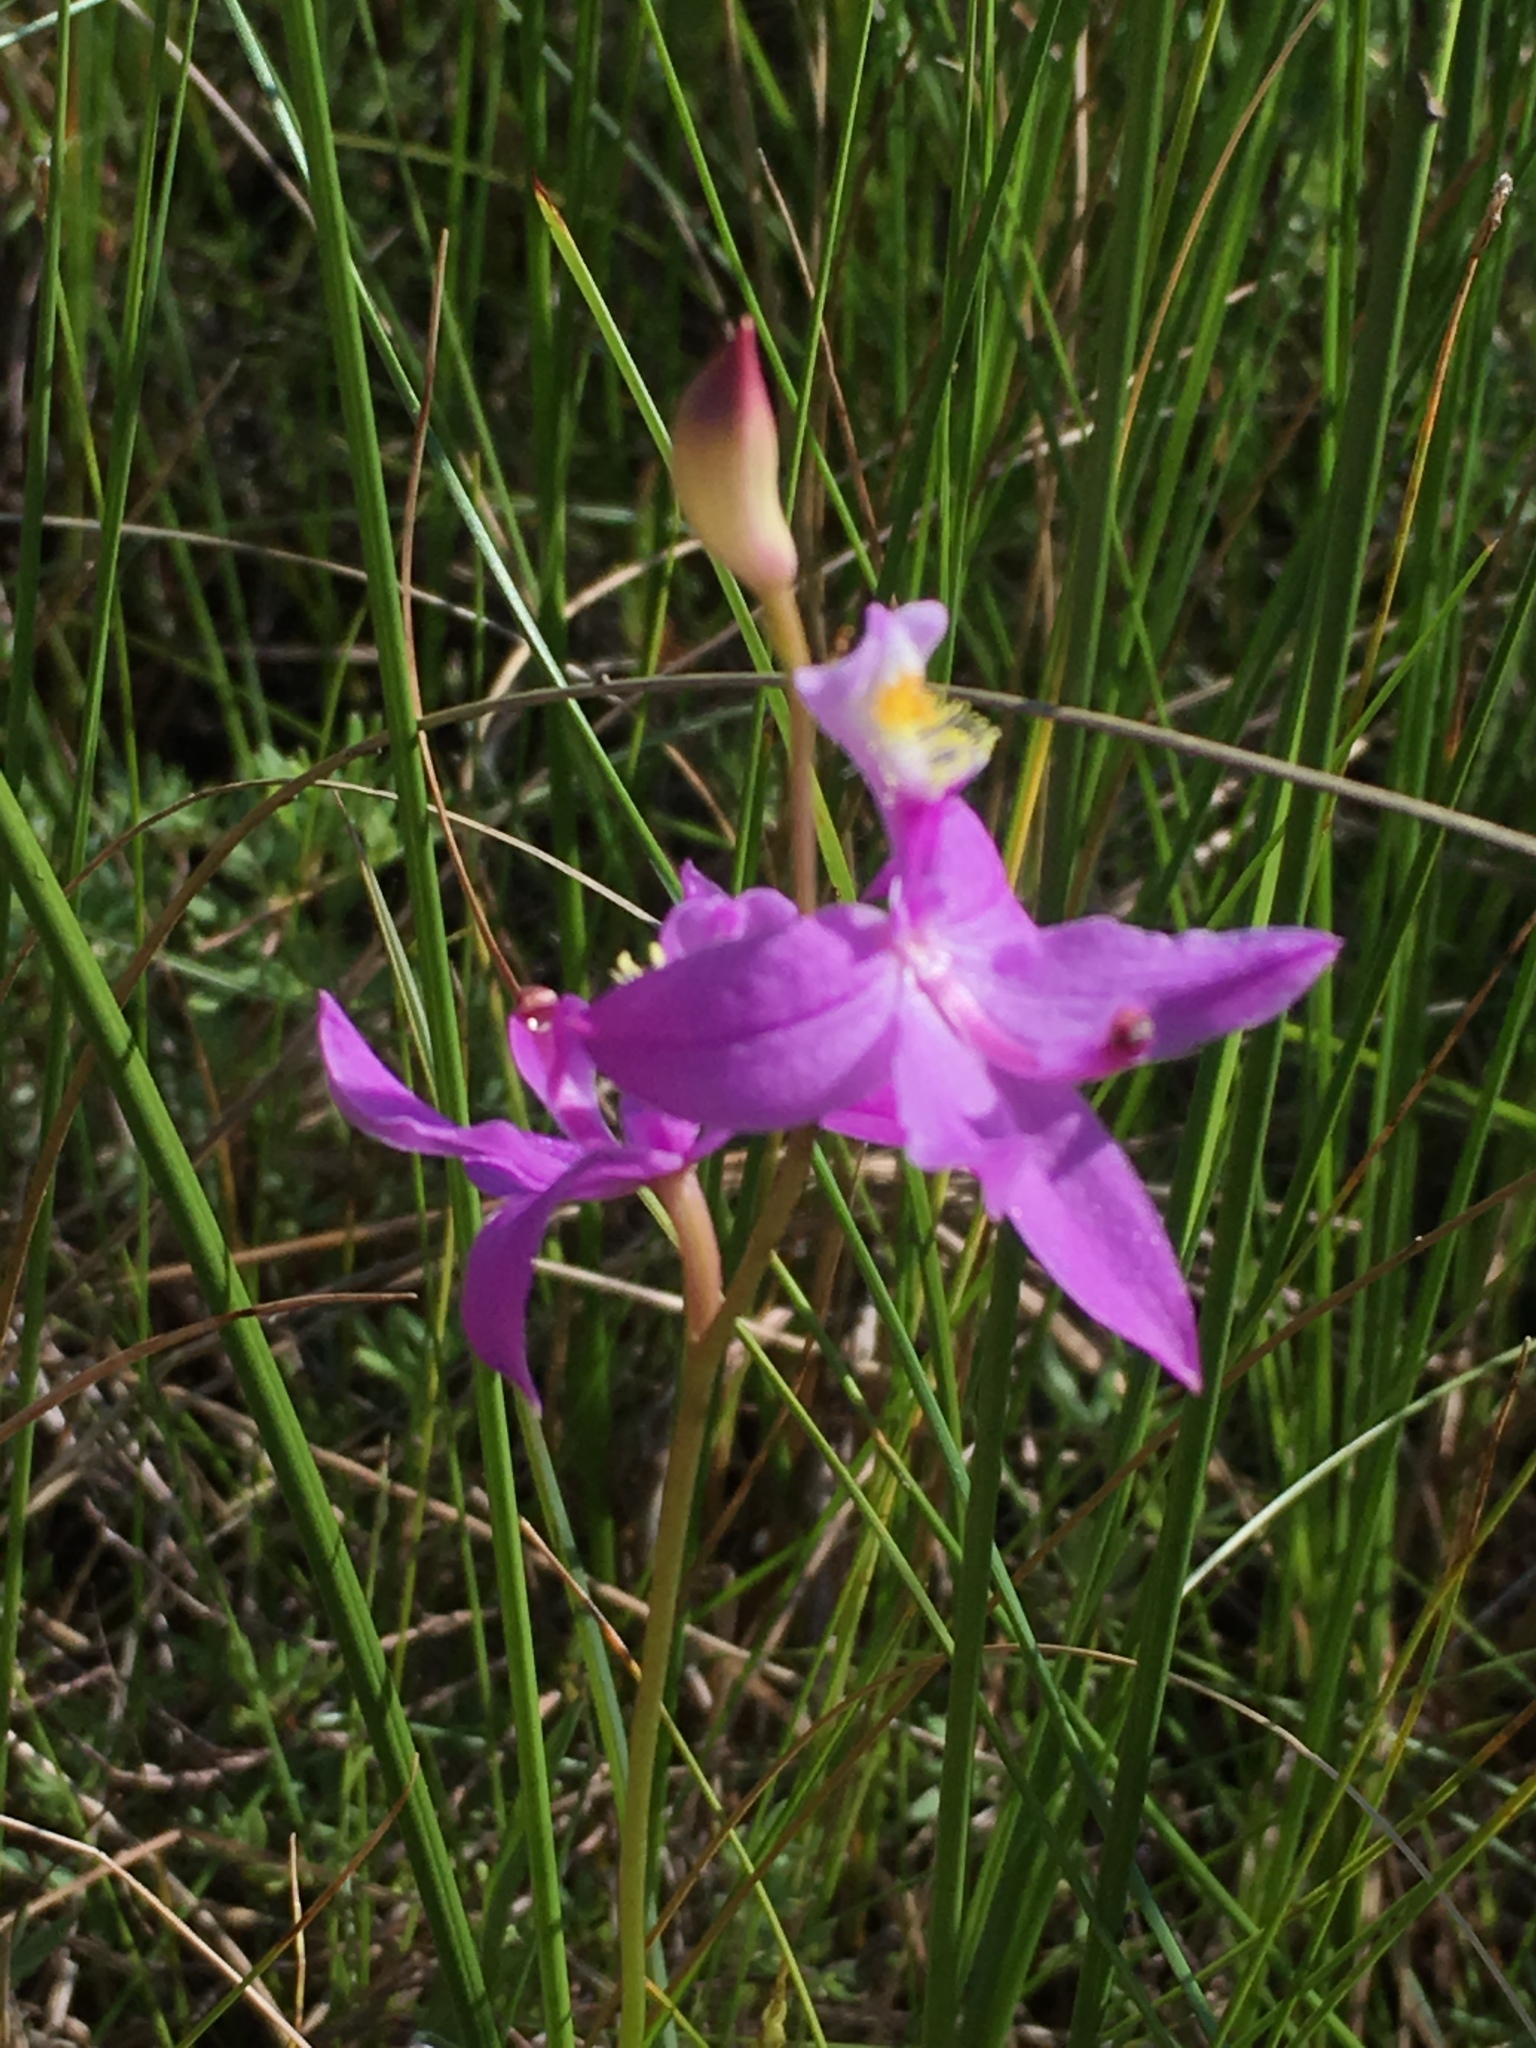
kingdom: Plantae
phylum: Tracheophyta
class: Liliopsida
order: Asparagales
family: Orchidaceae
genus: Calopogon
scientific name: Calopogon tuberosus
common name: Grass-pink
